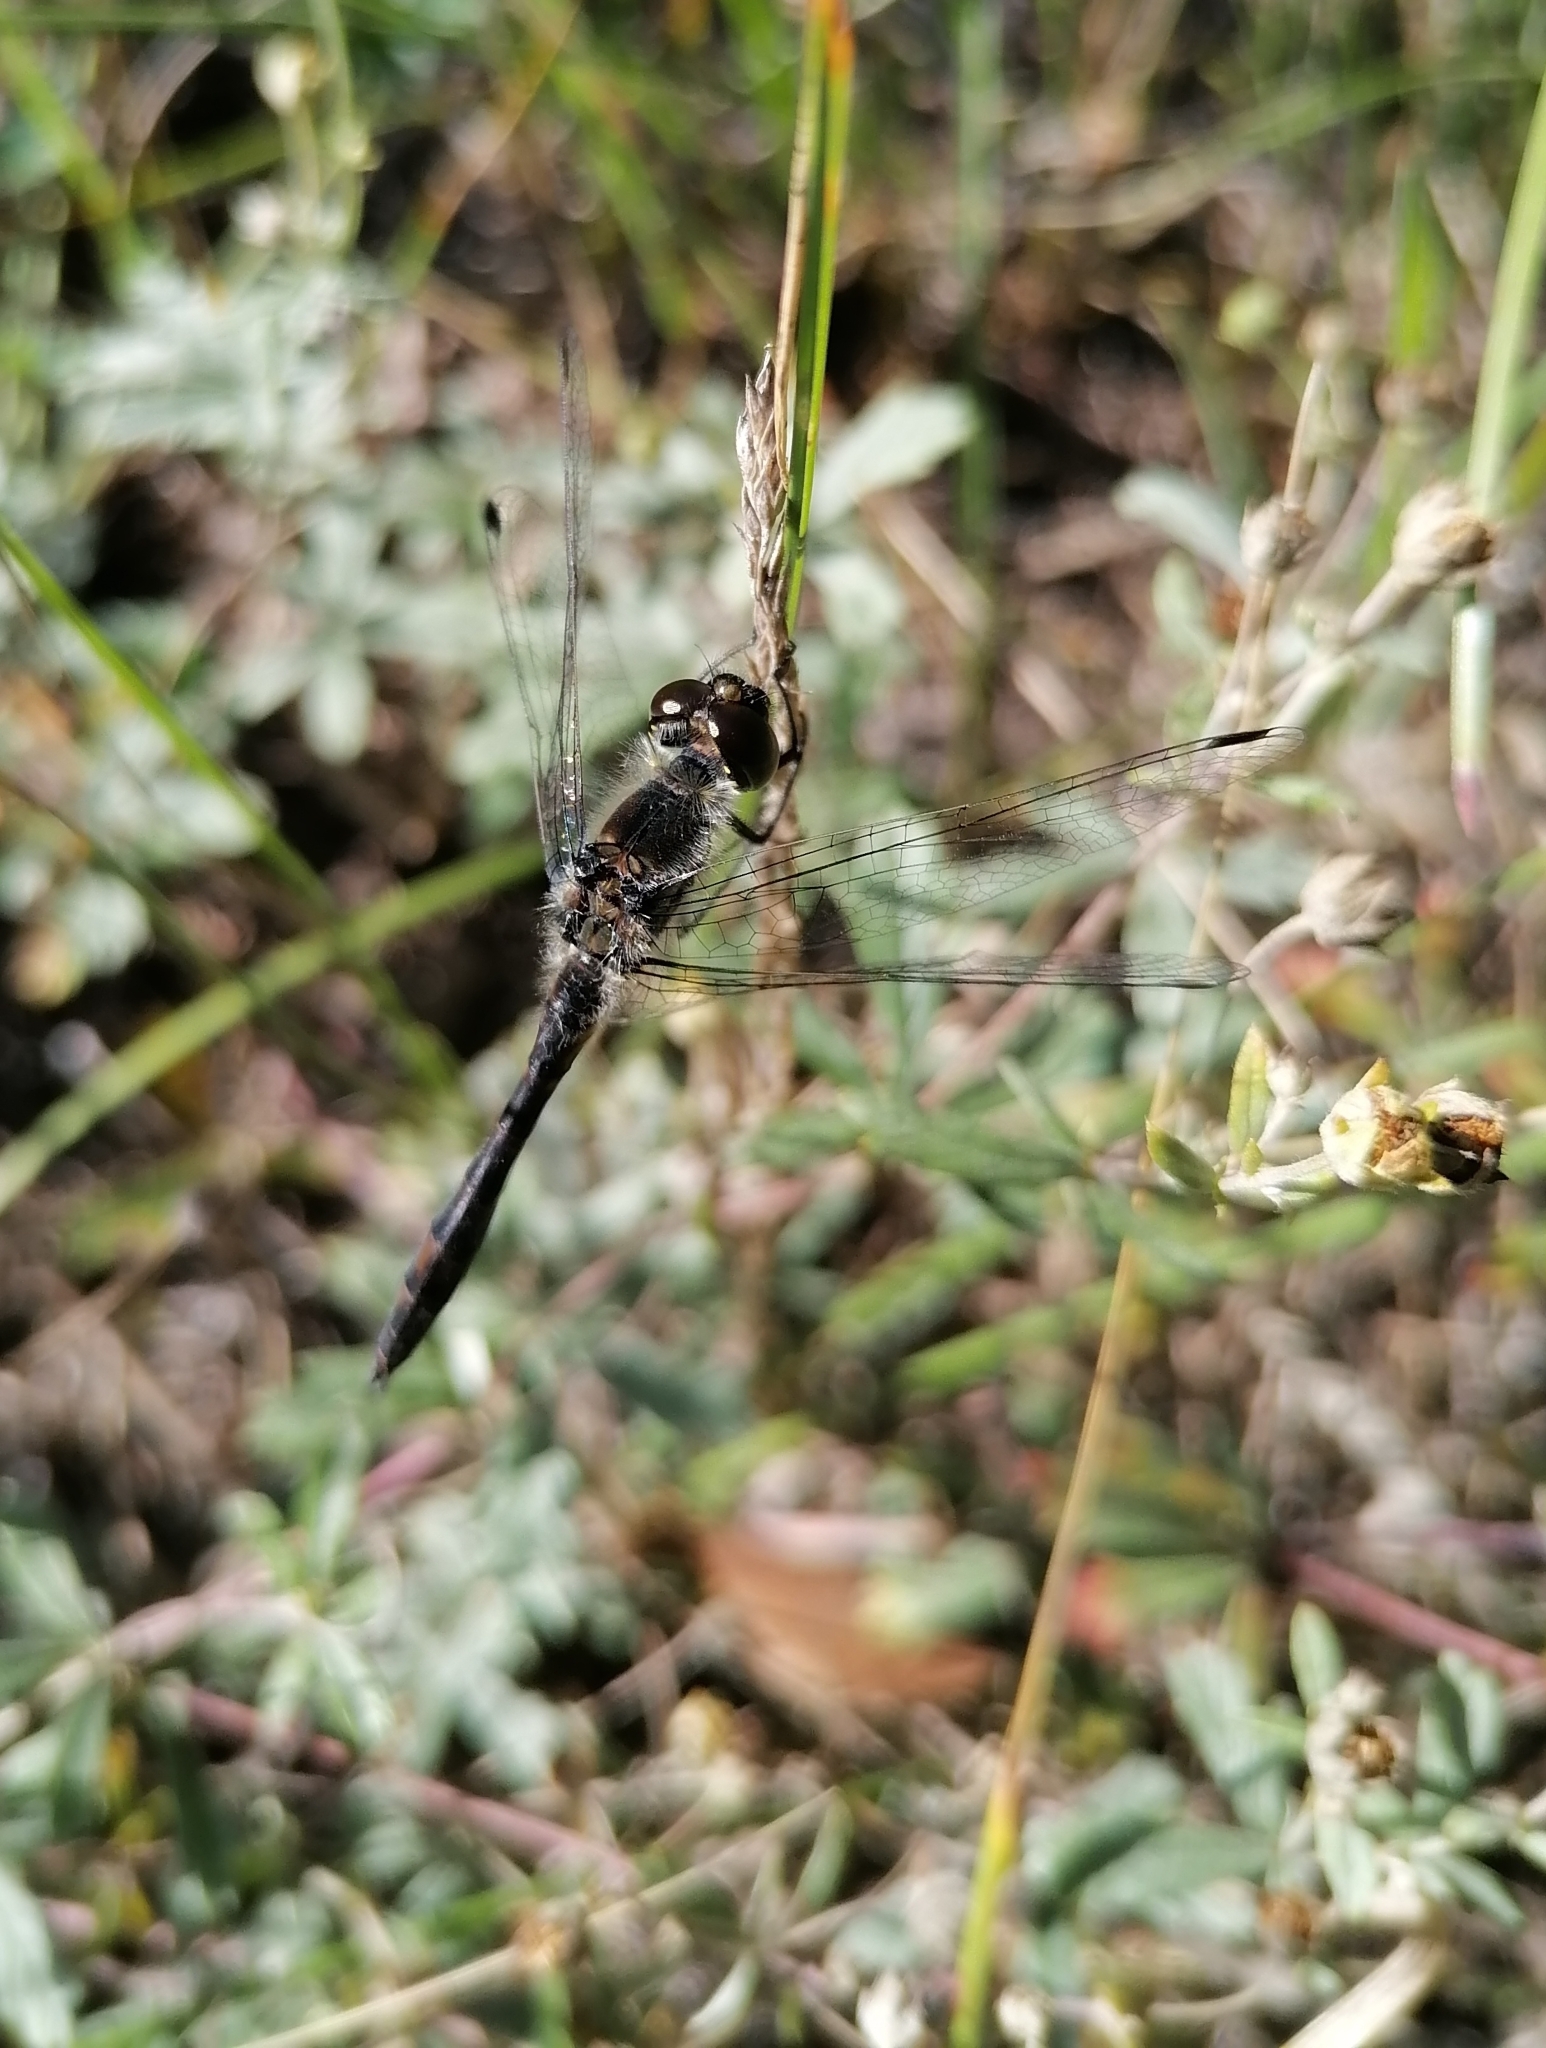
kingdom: Animalia
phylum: Arthropoda
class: Insecta
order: Odonata
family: Libellulidae
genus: Sympetrum
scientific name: Sympetrum danae
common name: Black darter
